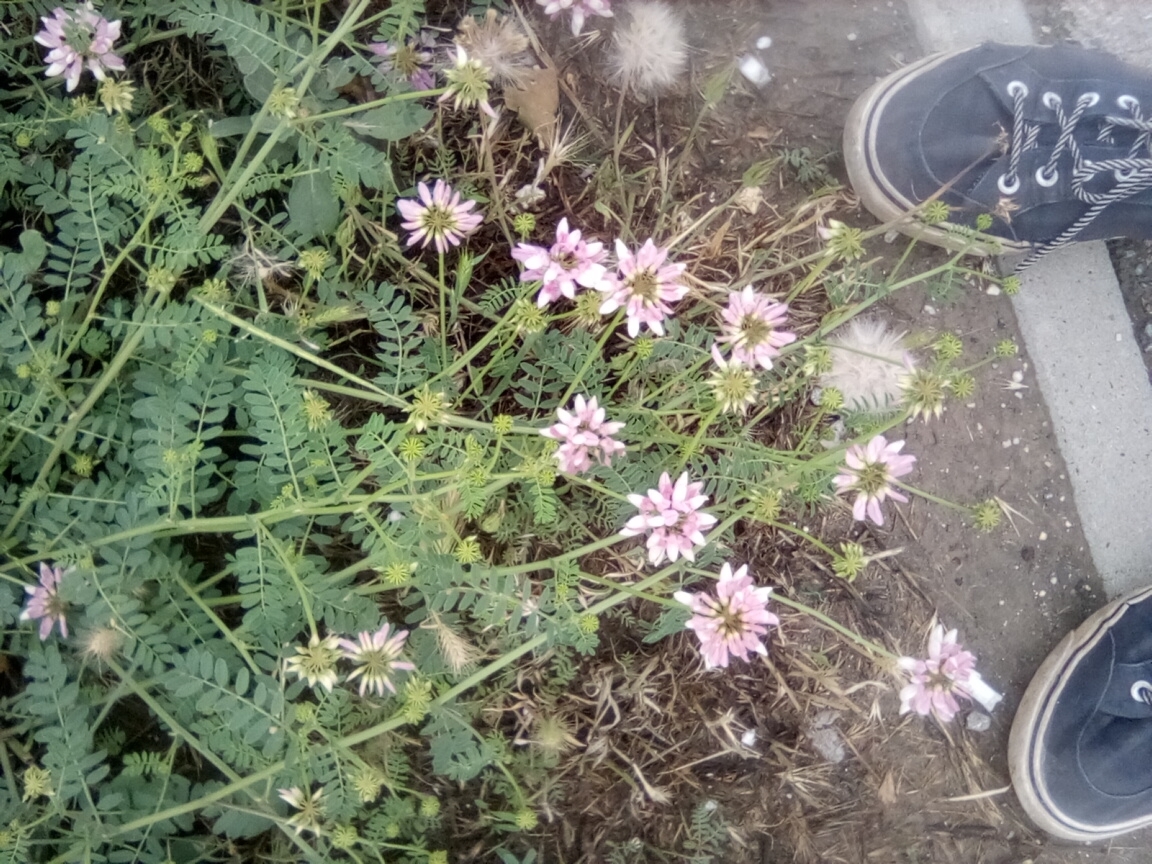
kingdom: Plantae
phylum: Tracheophyta
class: Magnoliopsida
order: Fabales
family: Fabaceae
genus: Coronilla
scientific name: Coronilla varia
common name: Crownvetch
